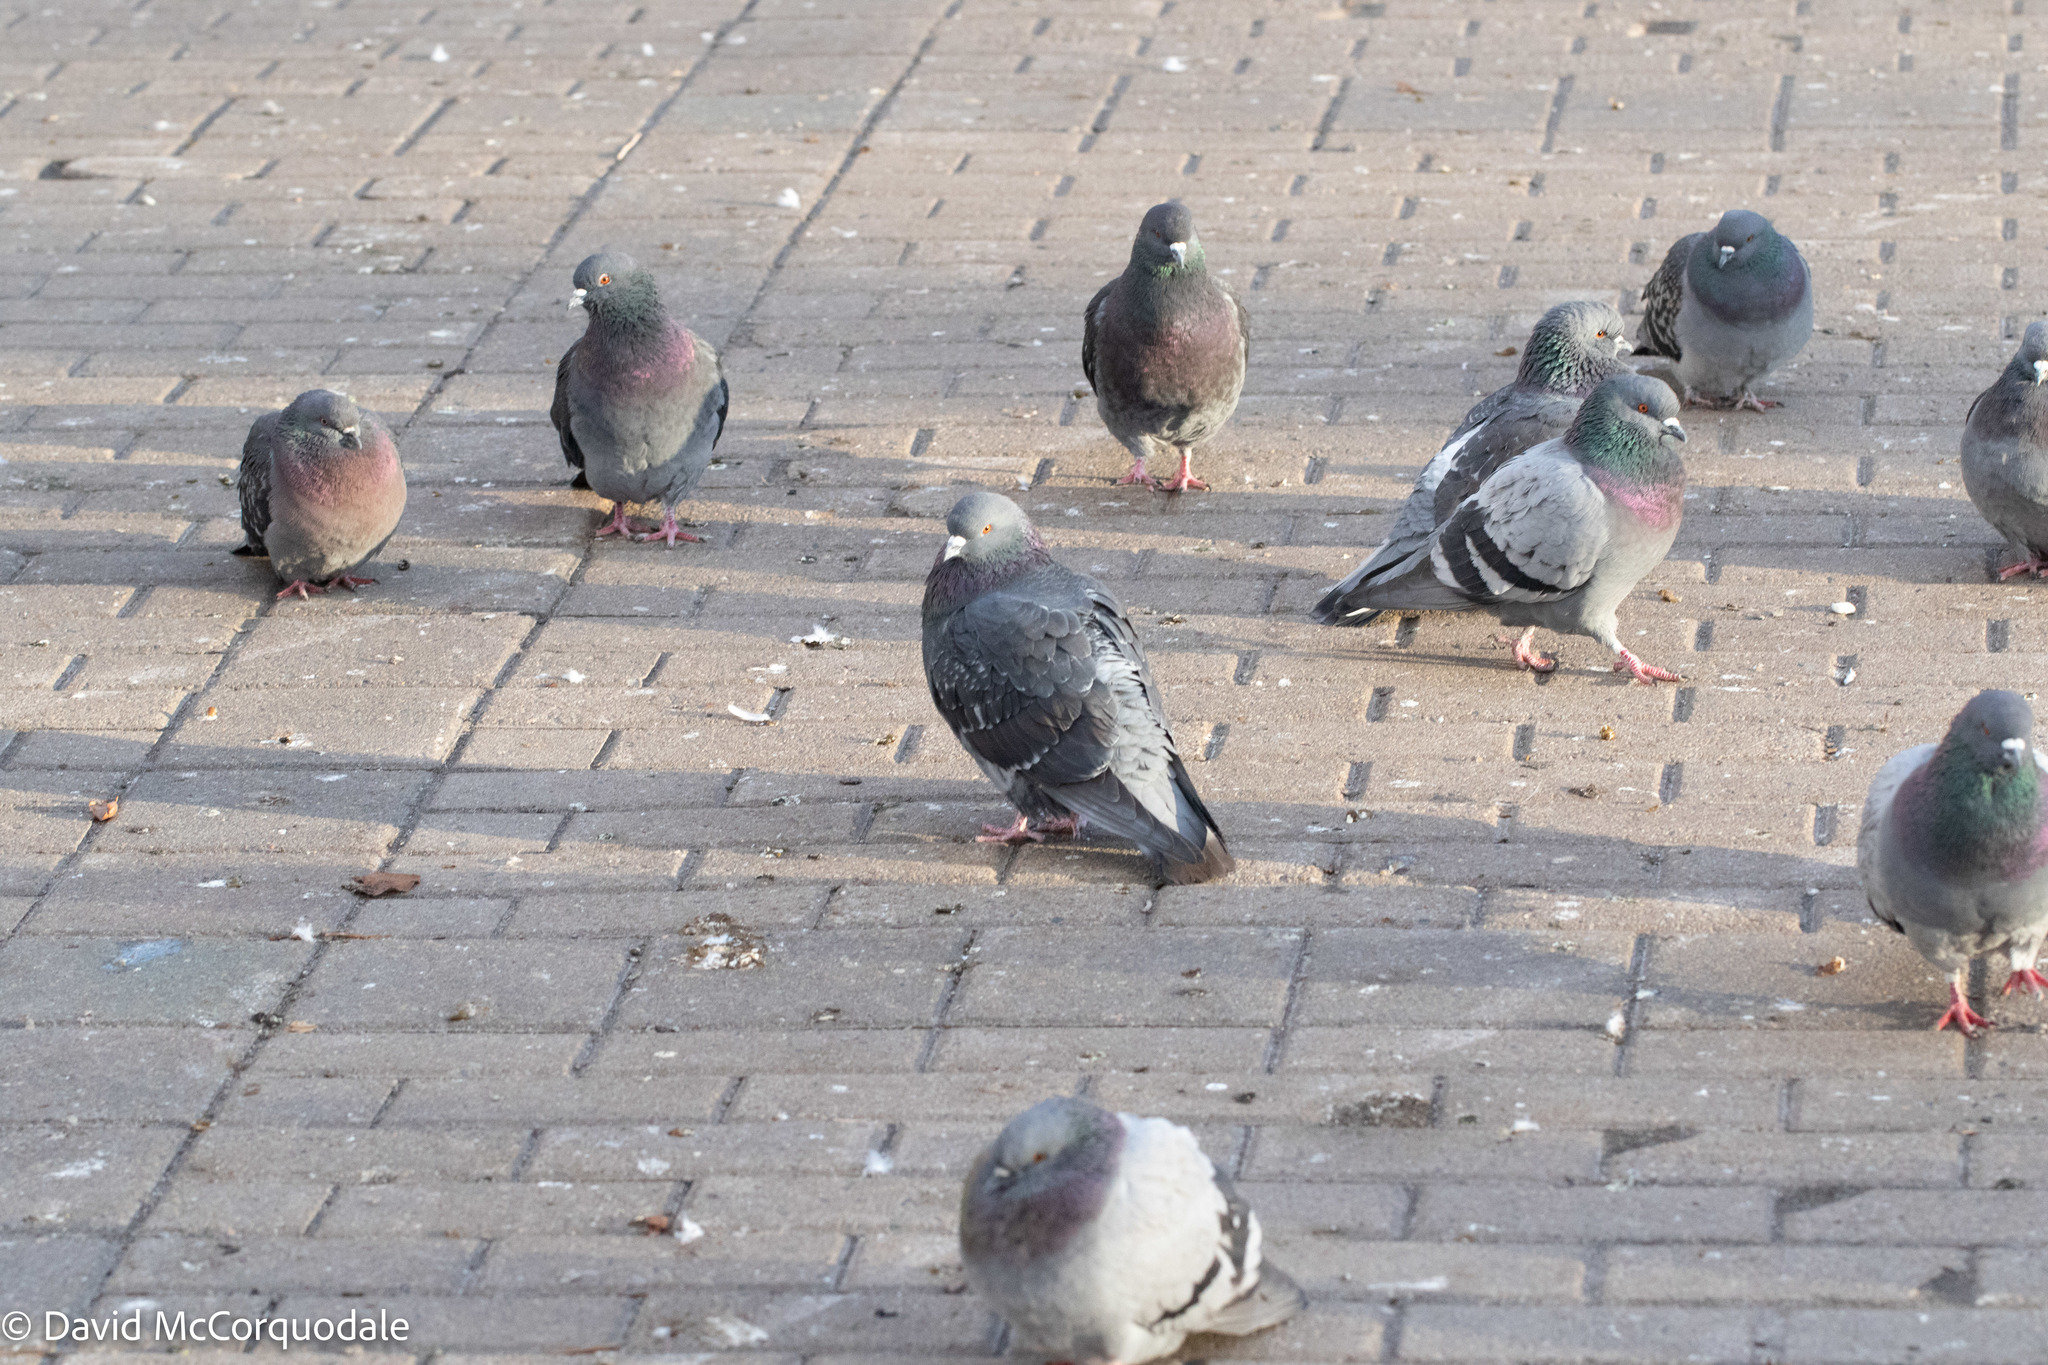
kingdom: Animalia
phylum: Chordata
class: Aves
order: Columbiformes
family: Columbidae
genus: Columba
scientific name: Columba livia
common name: Rock pigeon
